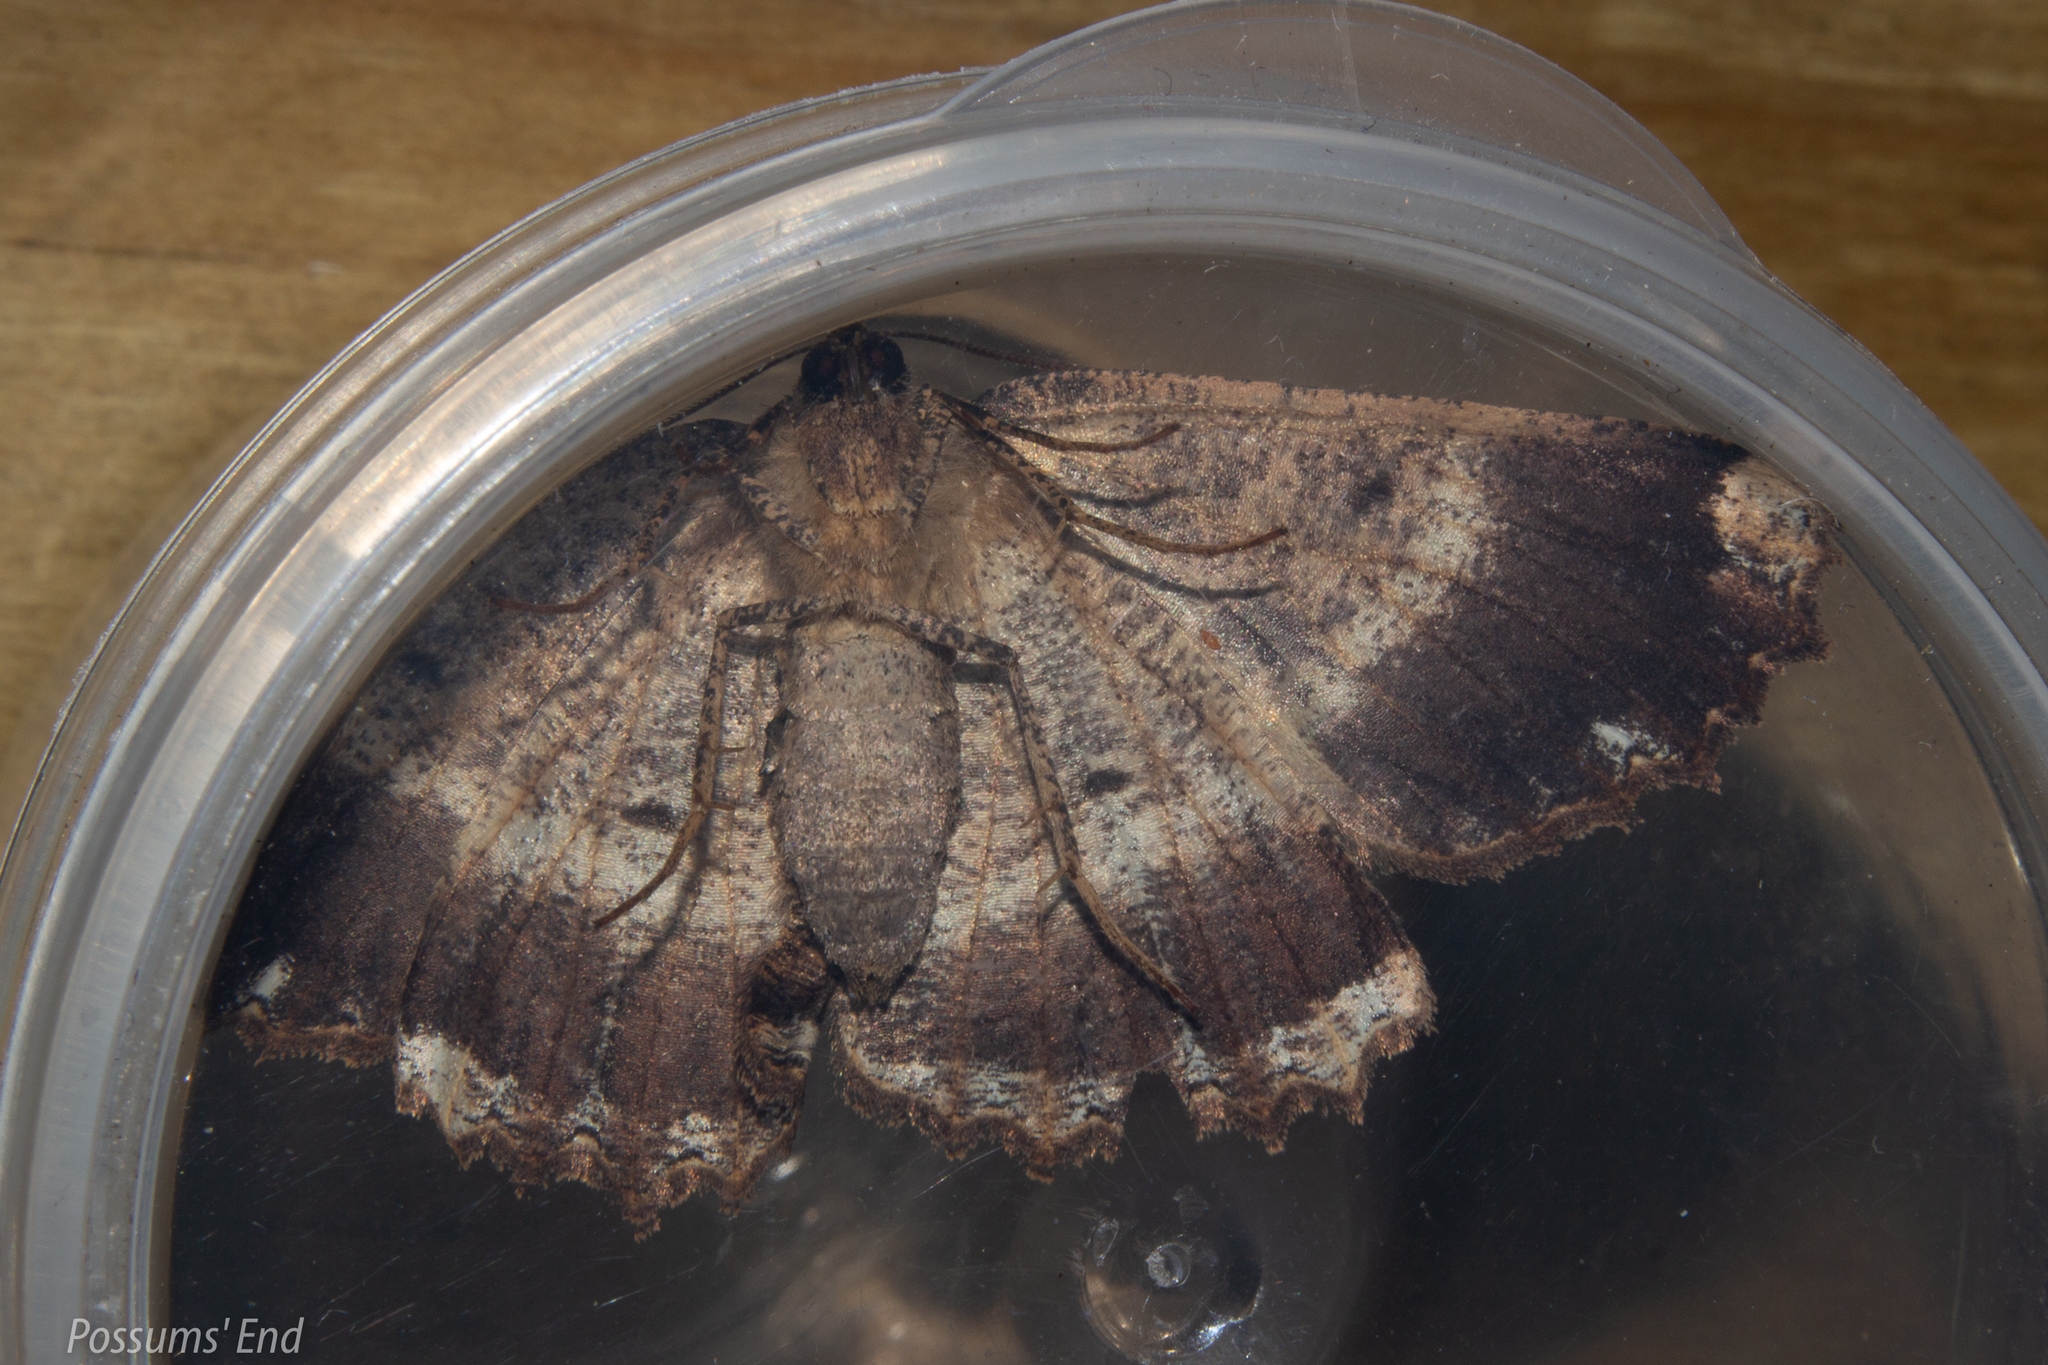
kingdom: Animalia
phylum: Arthropoda
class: Insecta
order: Lepidoptera
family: Geometridae
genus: Gellonia
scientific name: Gellonia dejectaria
